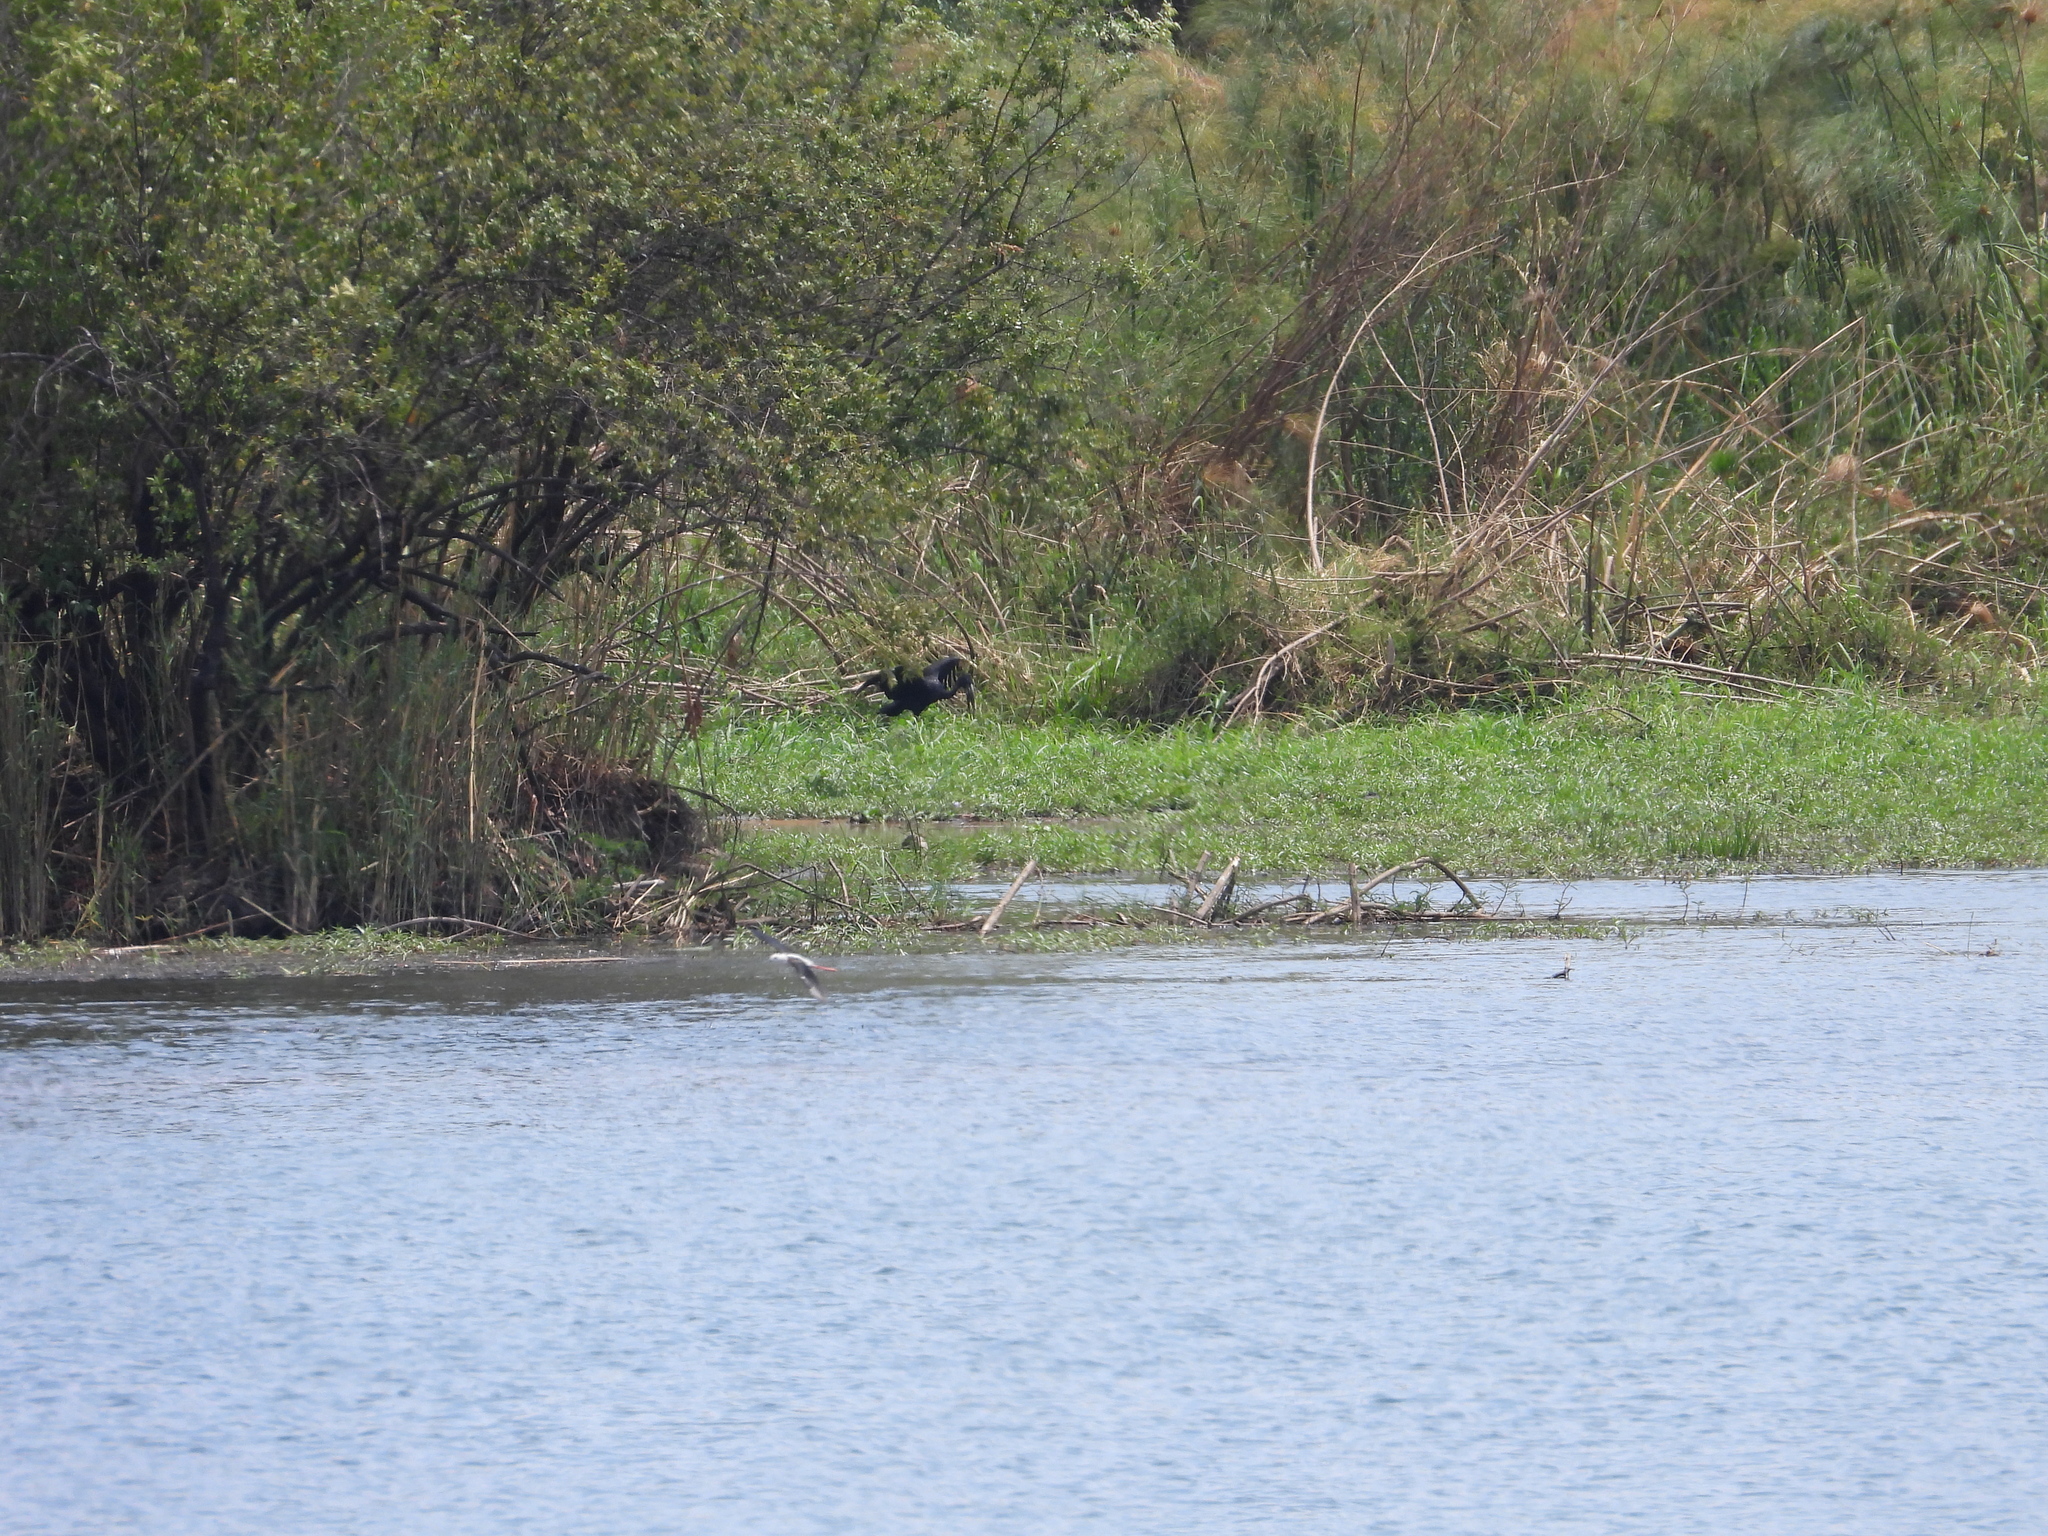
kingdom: Animalia
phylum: Chordata
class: Aves
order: Ciconiiformes
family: Ciconiidae
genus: Anastomus
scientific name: Anastomus lamelligerus
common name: African openbill
